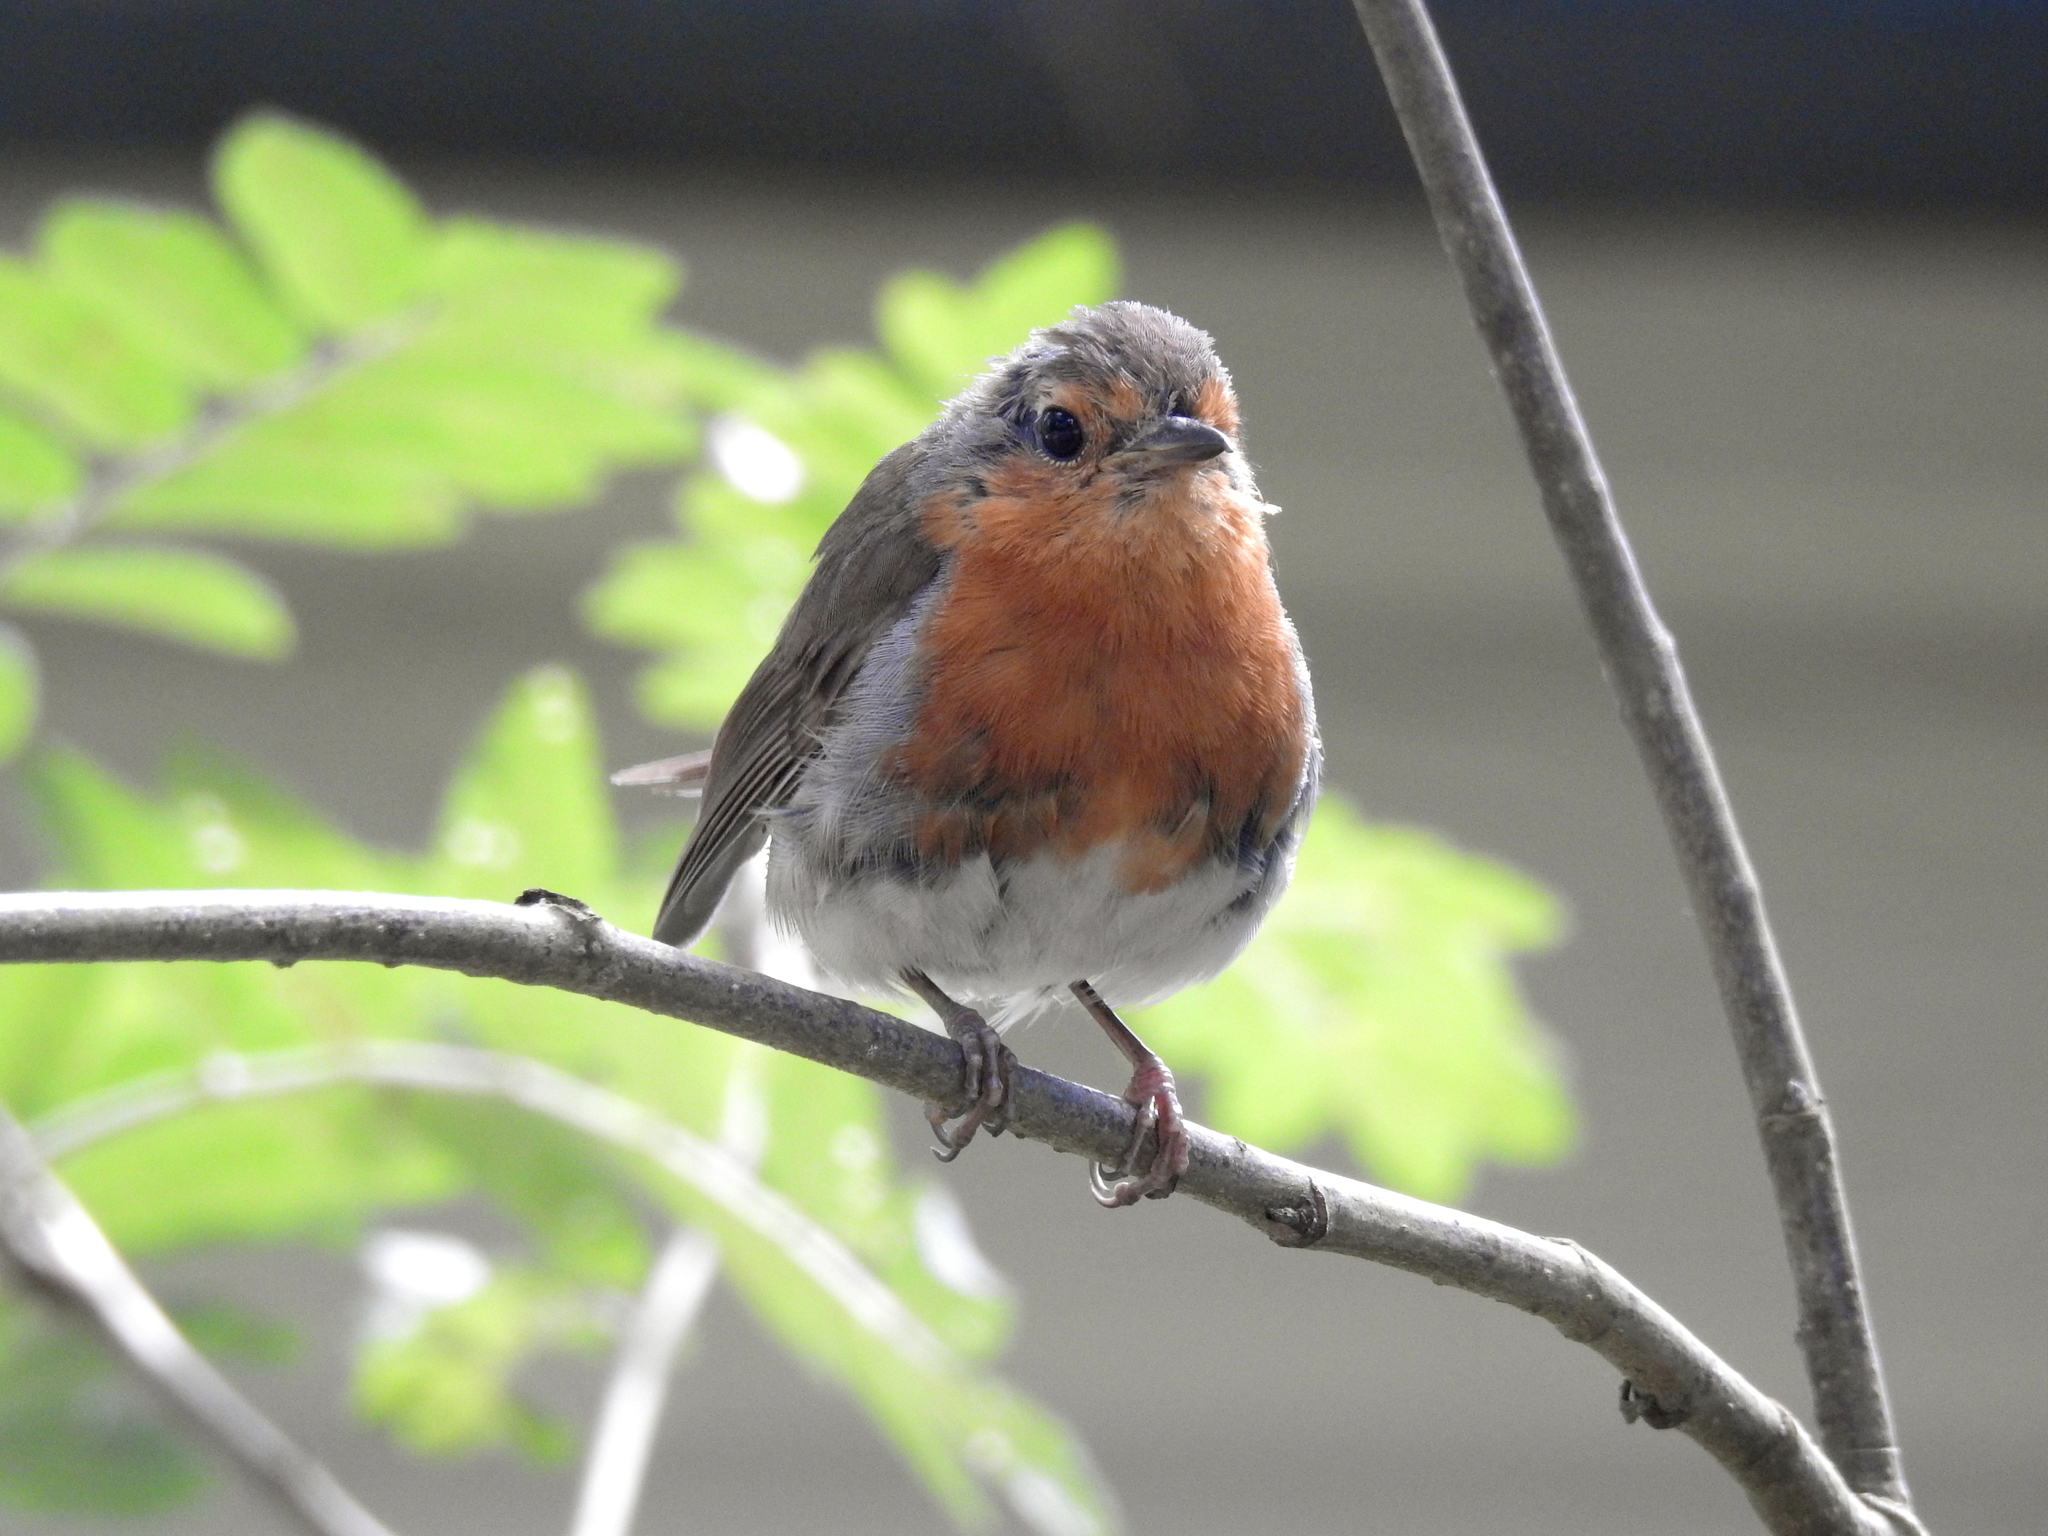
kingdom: Animalia
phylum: Chordata
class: Aves
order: Passeriformes
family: Muscicapidae
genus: Erithacus
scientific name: Erithacus rubecula
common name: European robin
